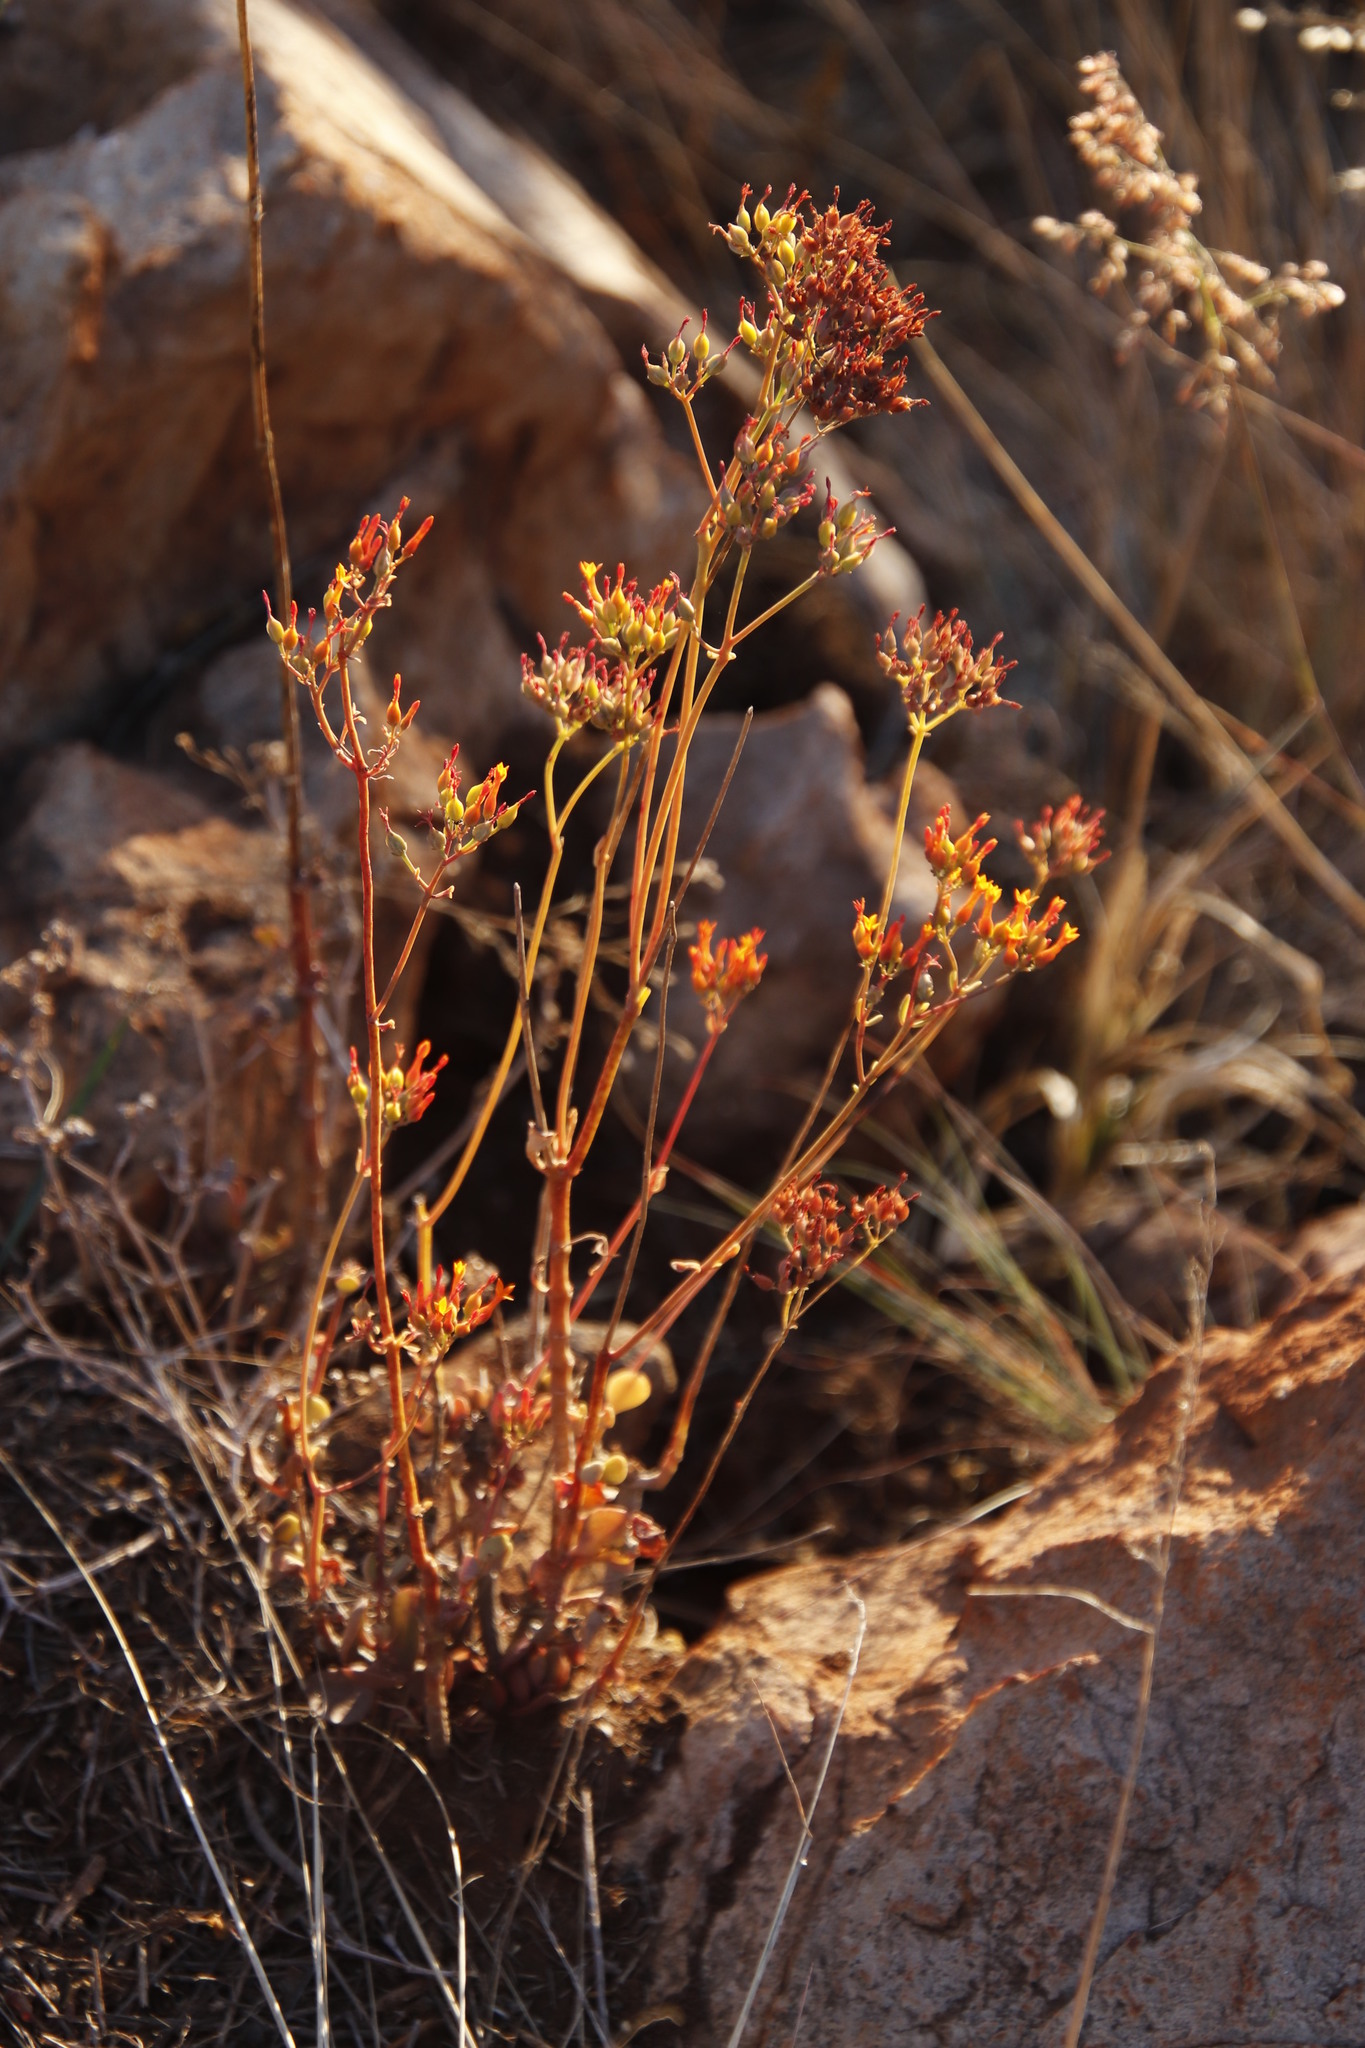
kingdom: Plantae
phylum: Tracheophyta
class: Magnoliopsida
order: Saxifragales
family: Crassulaceae
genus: Kalanchoe
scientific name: Kalanchoe rotundifolia
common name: Common kalanchoe
